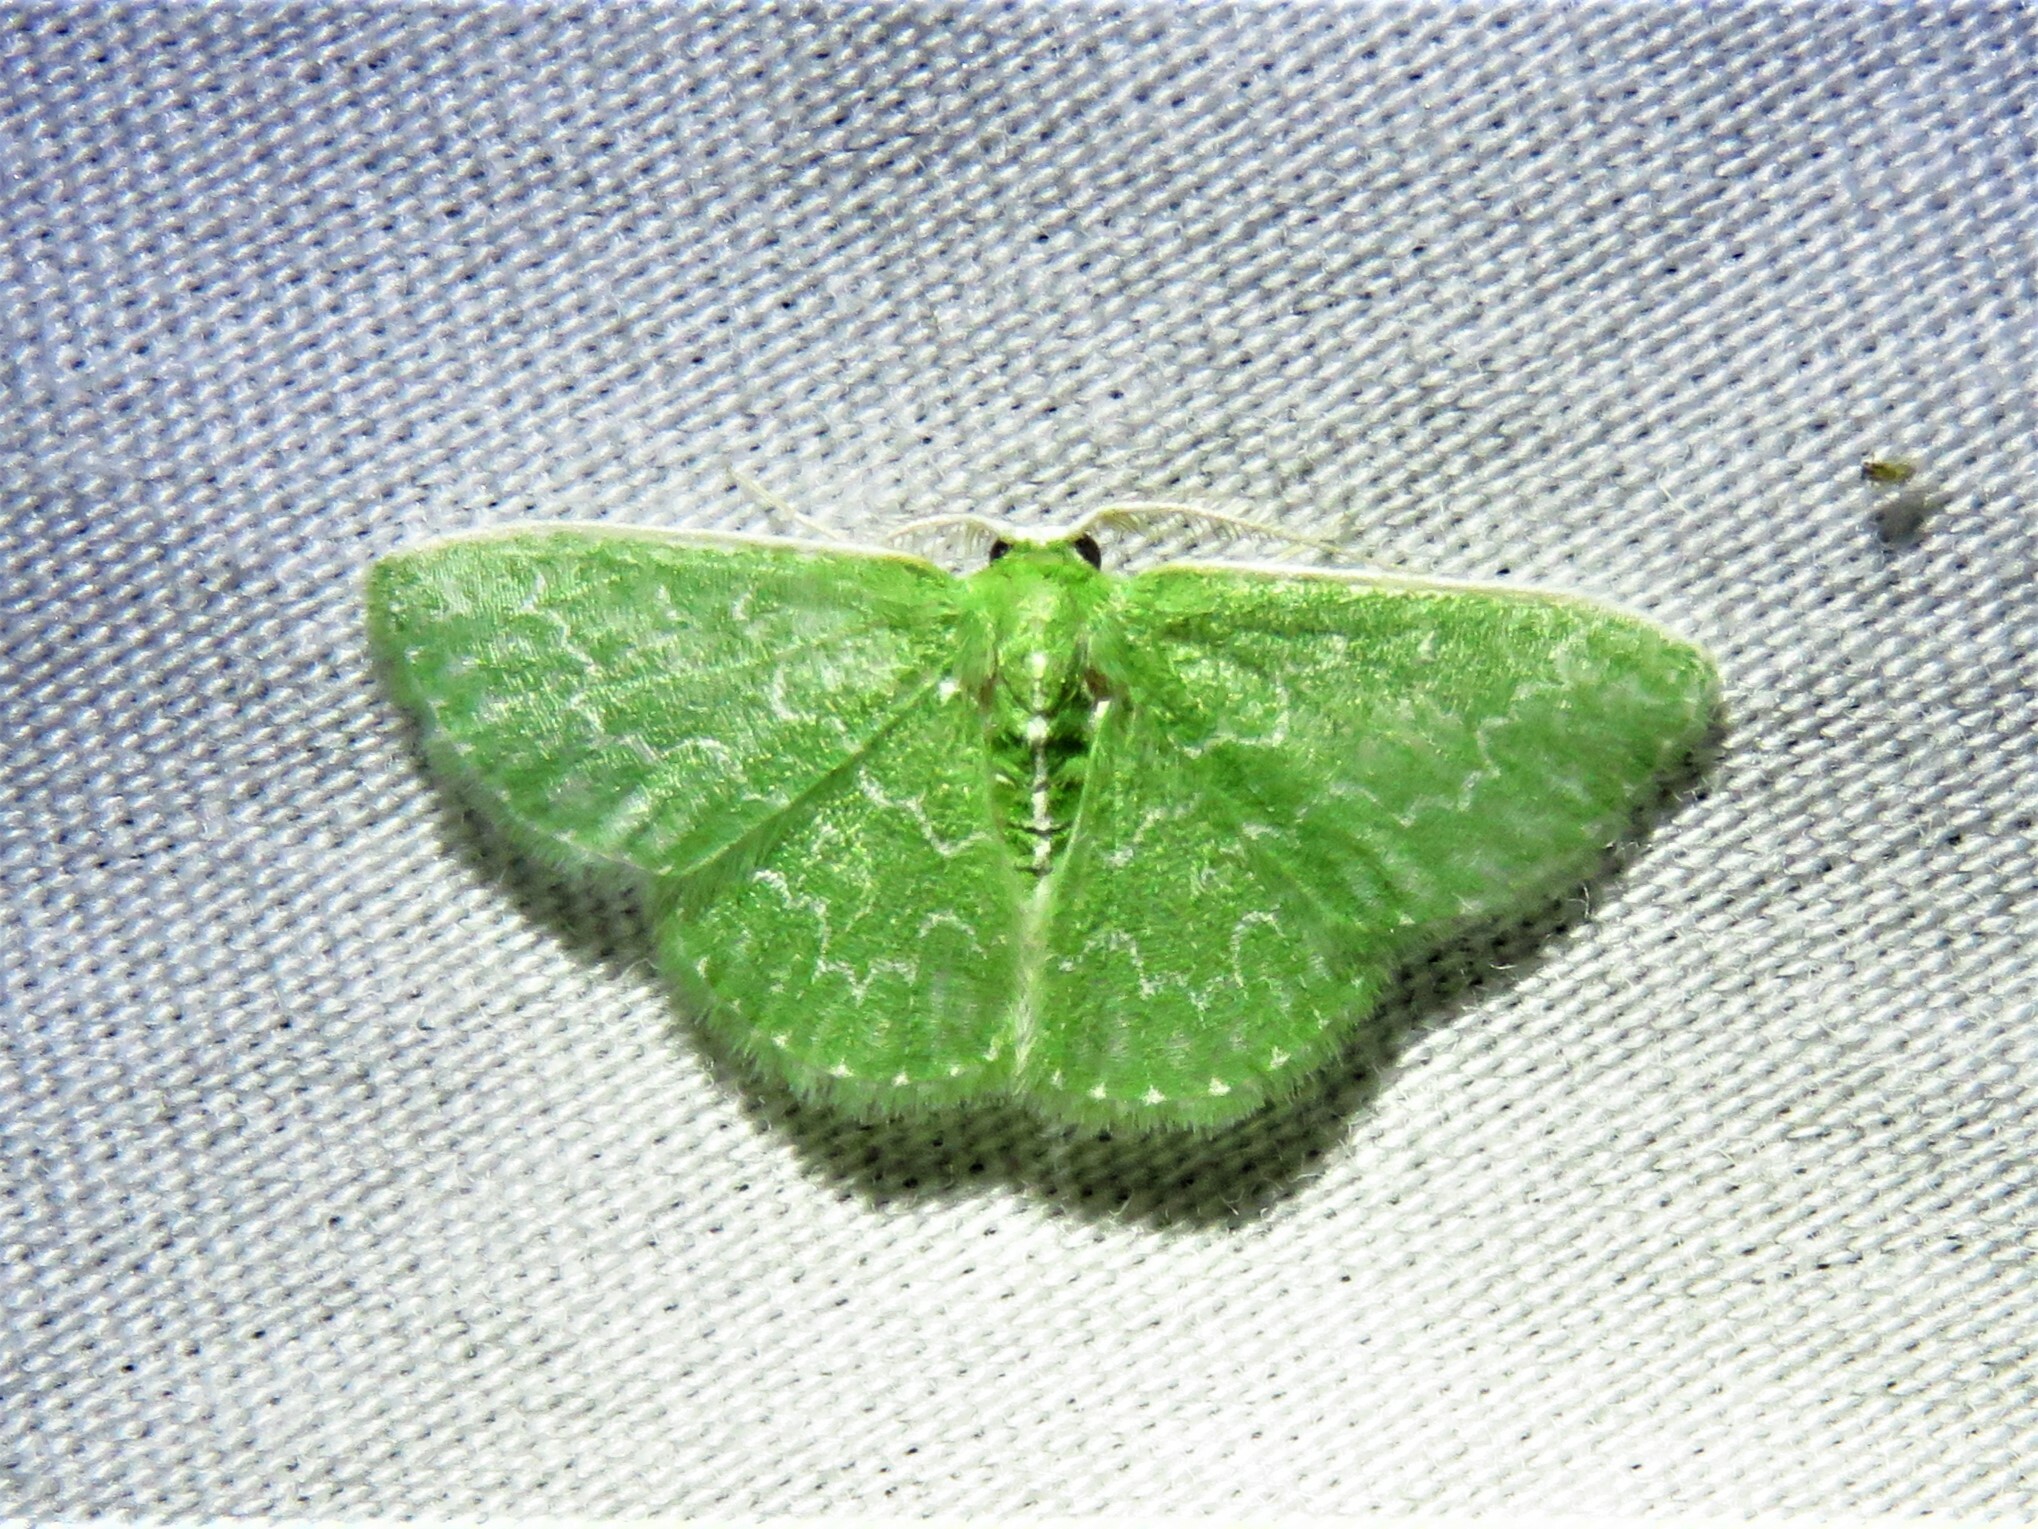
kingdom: Animalia
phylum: Arthropoda
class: Insecta
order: Lepidoptera
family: Geometridae
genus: Synchlora
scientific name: Synchlora frondaria
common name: Southern emerald
